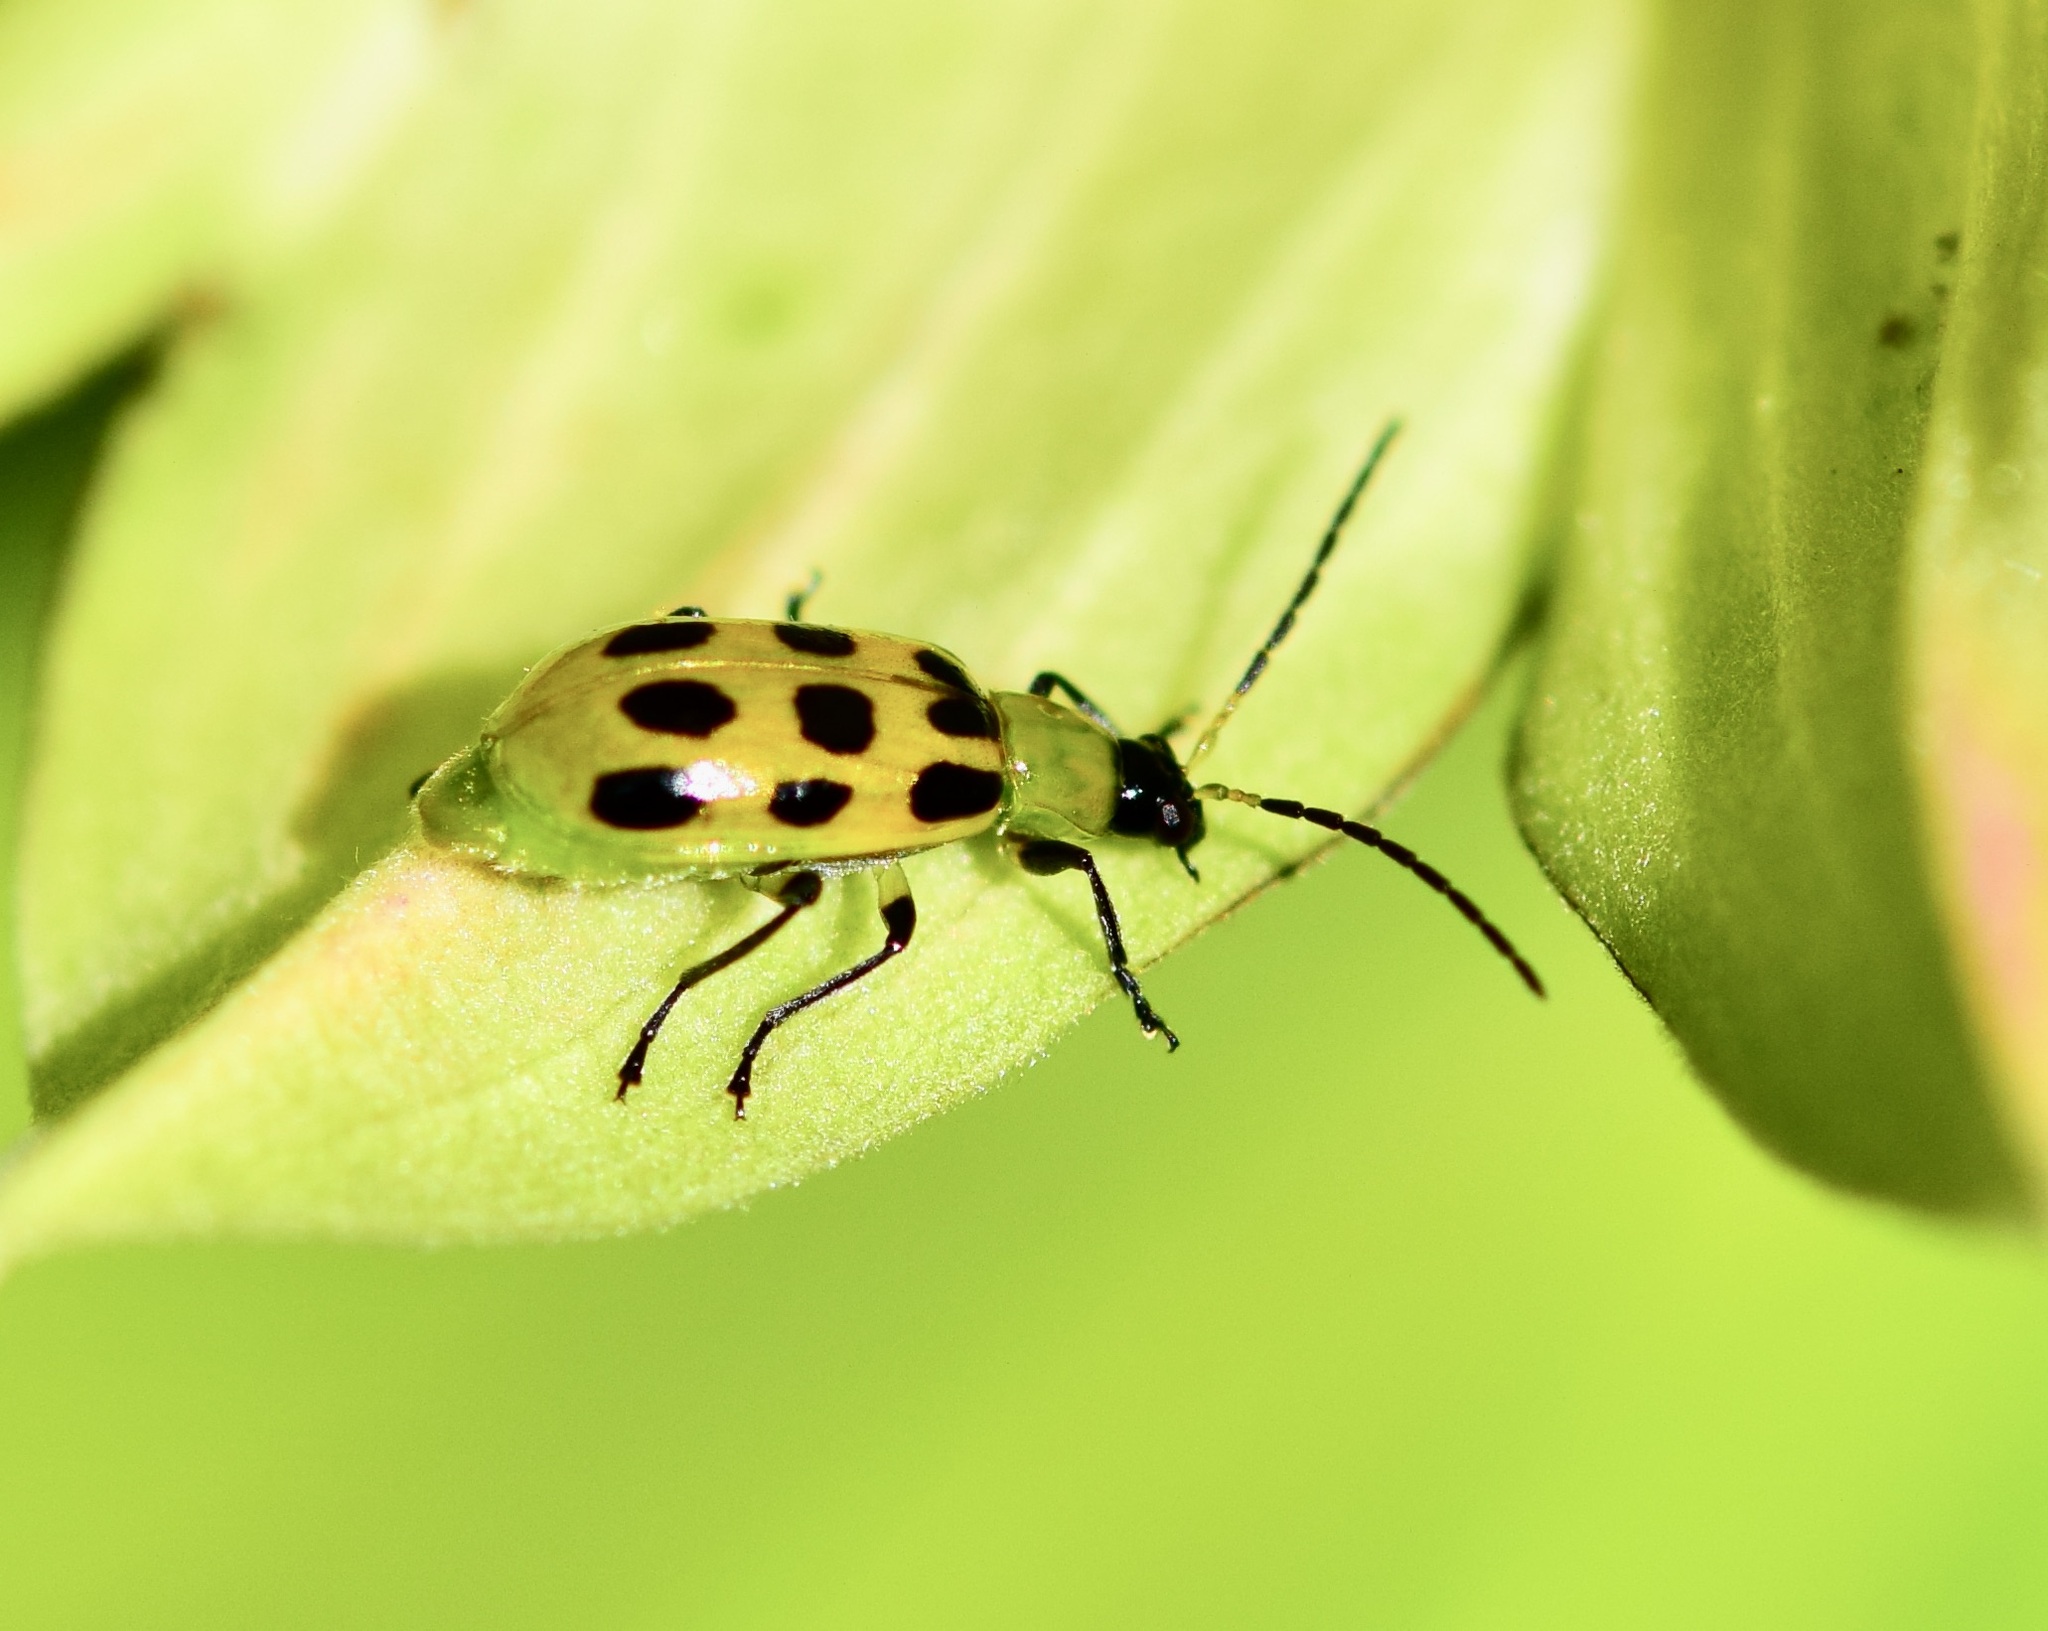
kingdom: Animalia
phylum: Arthropoda
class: Insecta
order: Coleoptera
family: Chrysomelidae
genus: Diabrotica
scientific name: Diabrotica undecimpunctata
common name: Spotted cucumber beetle
